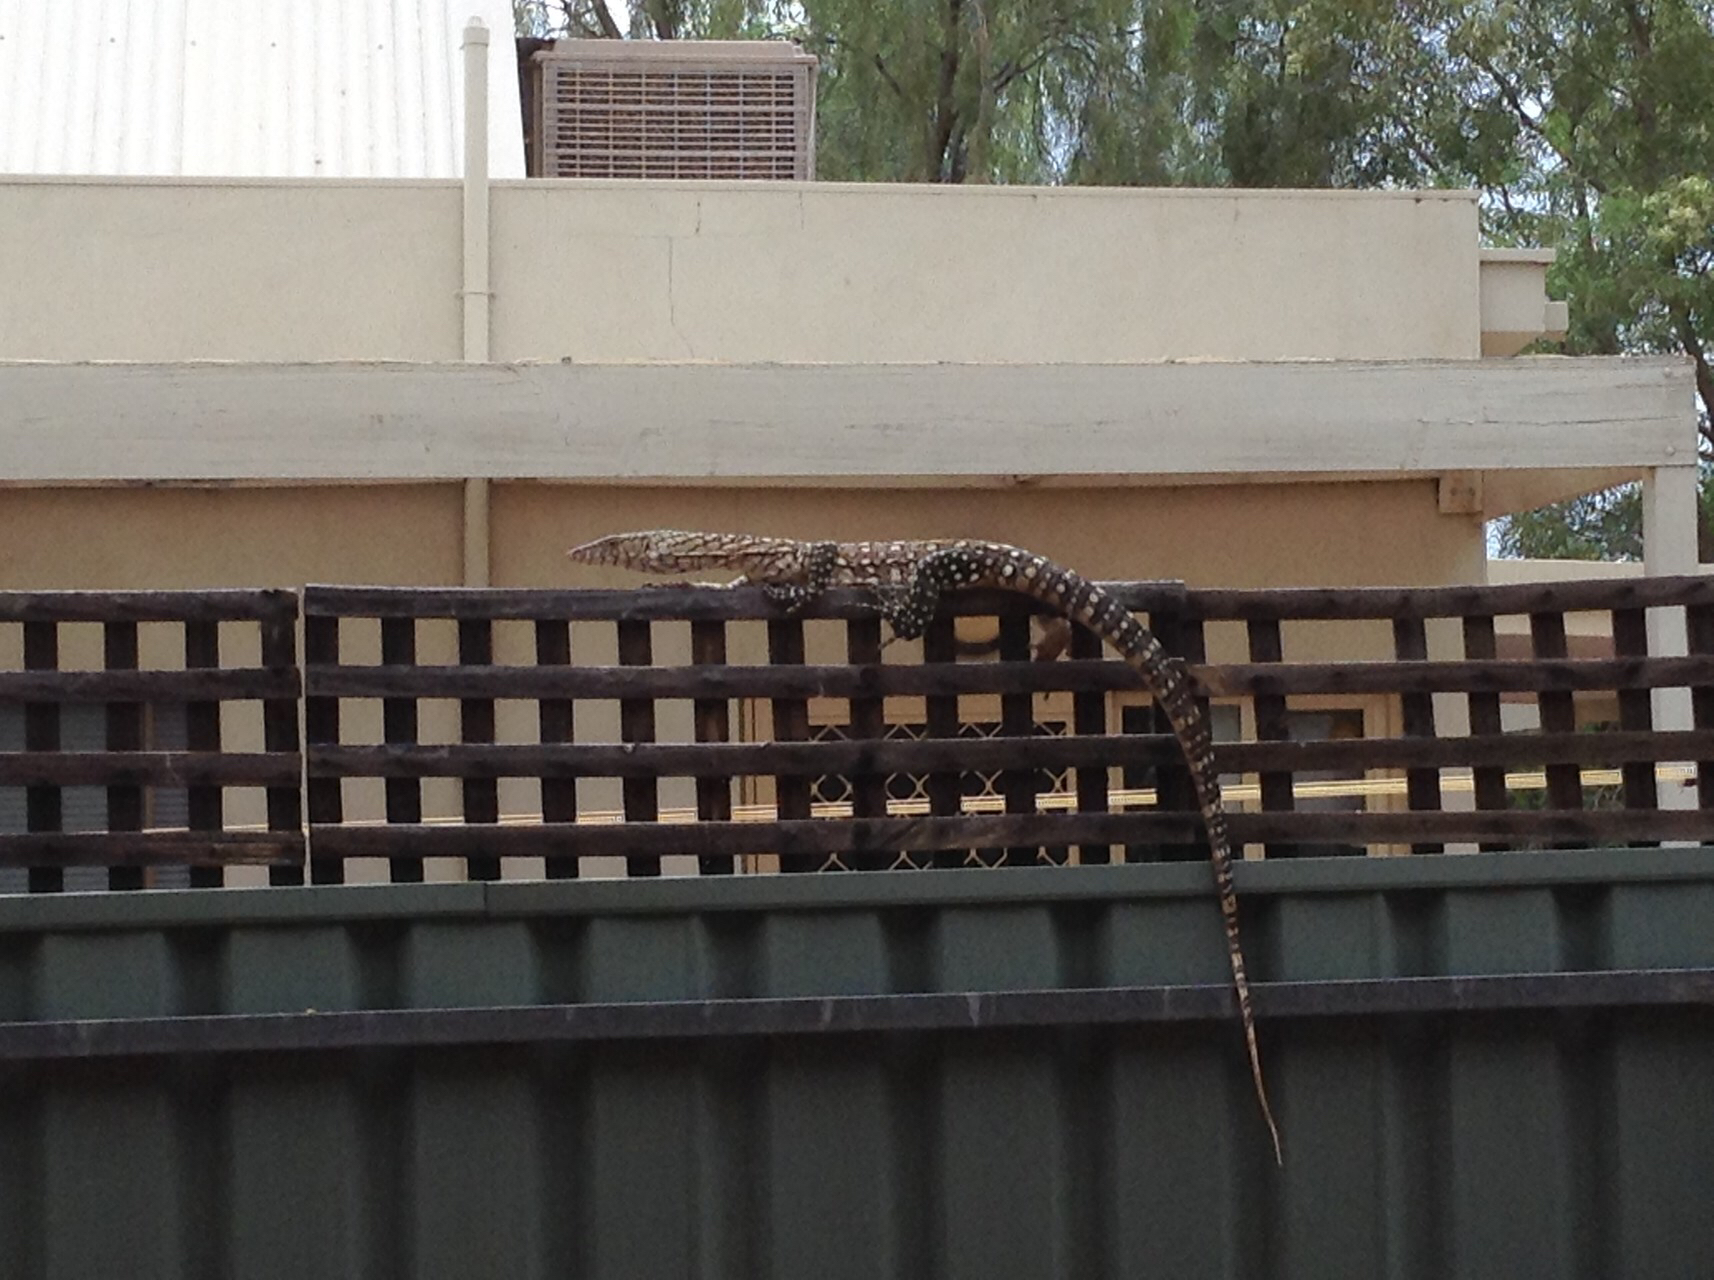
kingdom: Animalia
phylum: Chordata
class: Squamata
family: Varanidae
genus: Varanus
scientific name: Varanus giganteus
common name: Perentie
